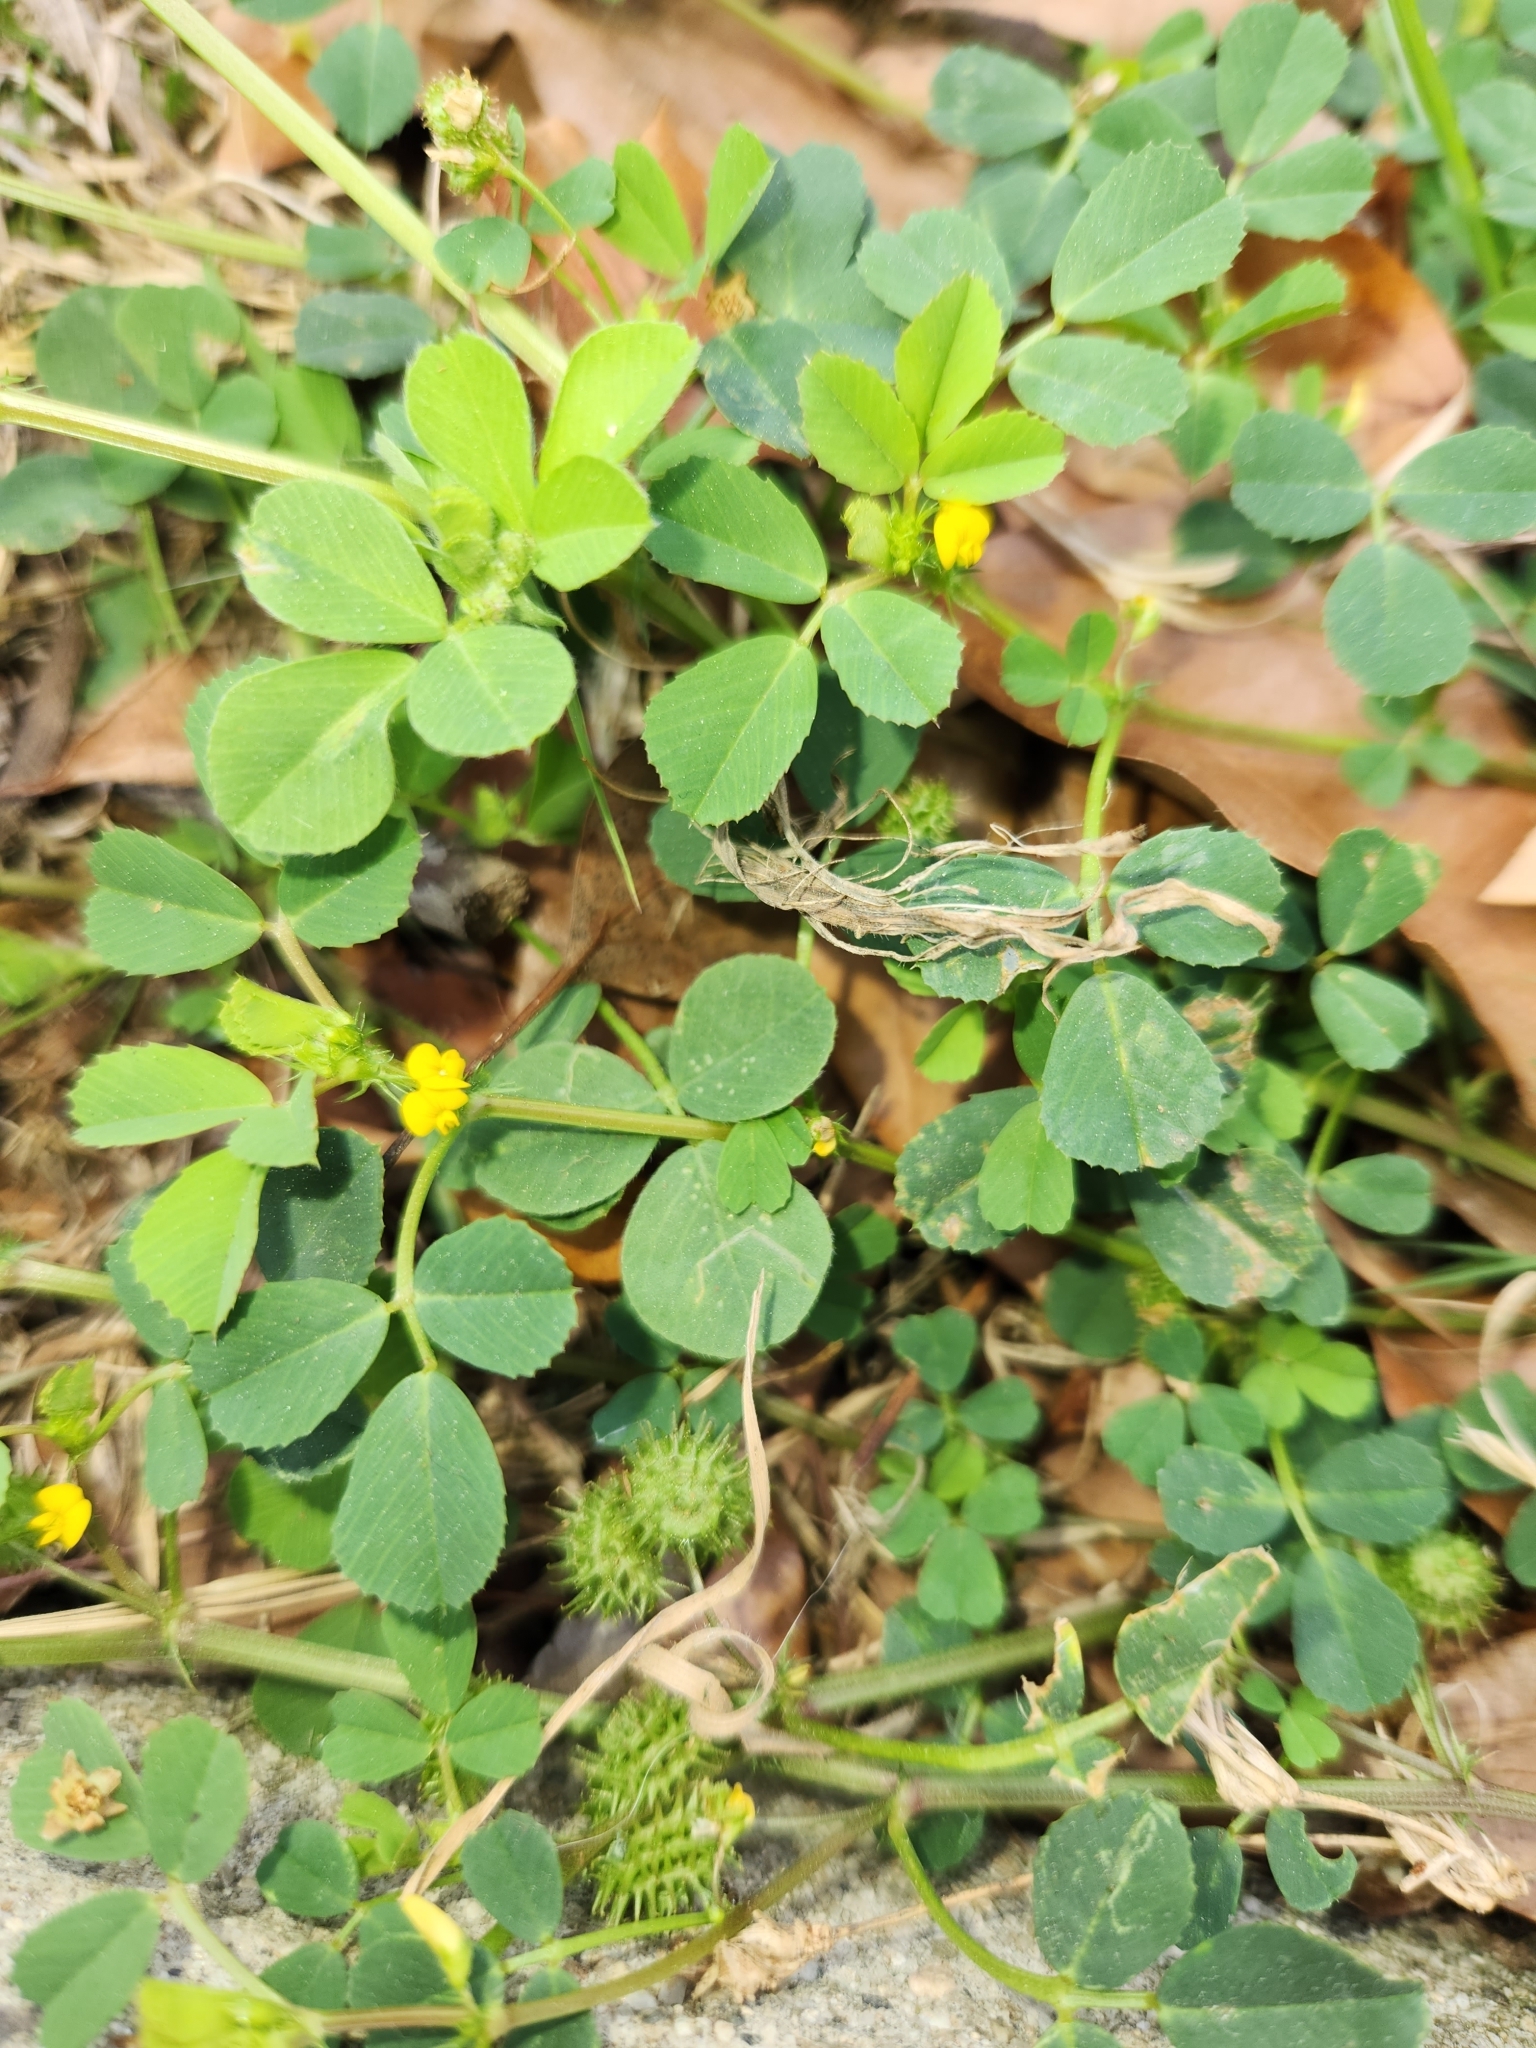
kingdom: Plantae
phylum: Tracheophyta
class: Magnoliopsida
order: Fabales
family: Fabaceae
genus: Medicago
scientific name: Medicago polymorpha
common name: Burclover
